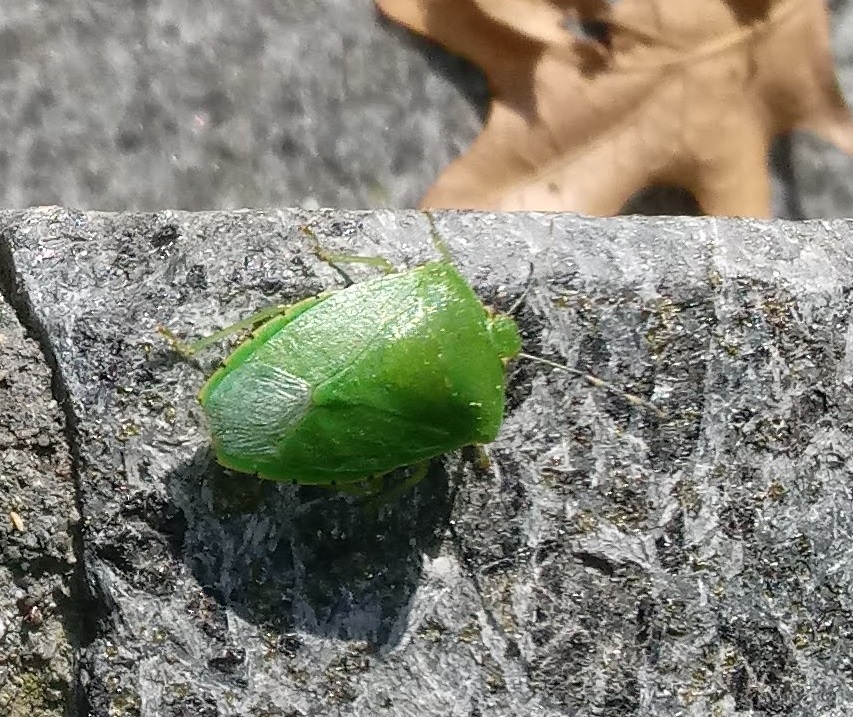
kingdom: Animalia
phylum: Arthropoda
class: Insecta
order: Hemiptera
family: Pentatomidae
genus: Chinavia
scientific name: Chinavia hilaris
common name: Green stink bug
